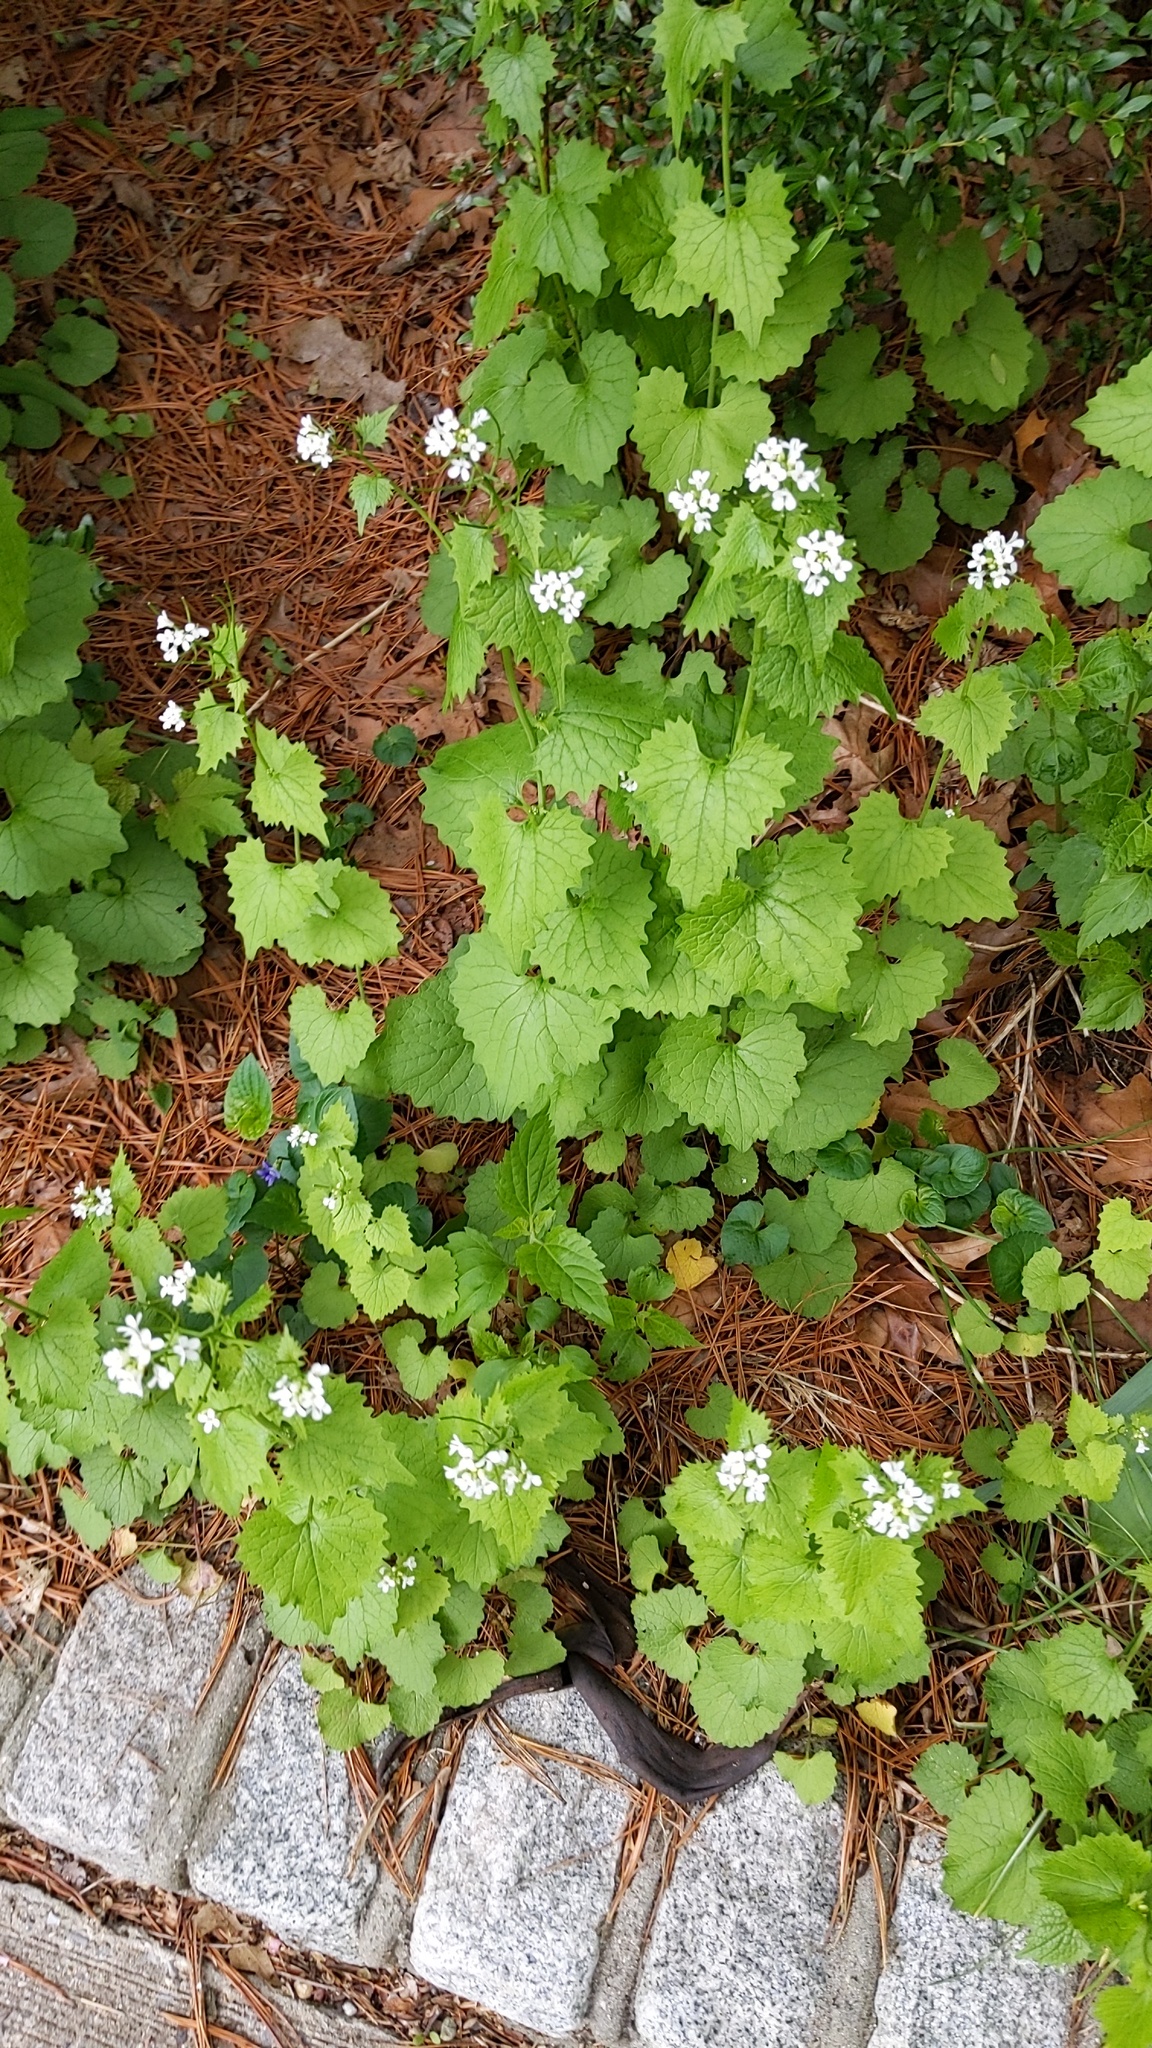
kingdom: Plantae
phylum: Tracheophyta
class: Magnoliopsida
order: Brassicales
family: Brassicaceae
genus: Alliaria
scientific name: Alliaria petiolata
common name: Garlic mustard
